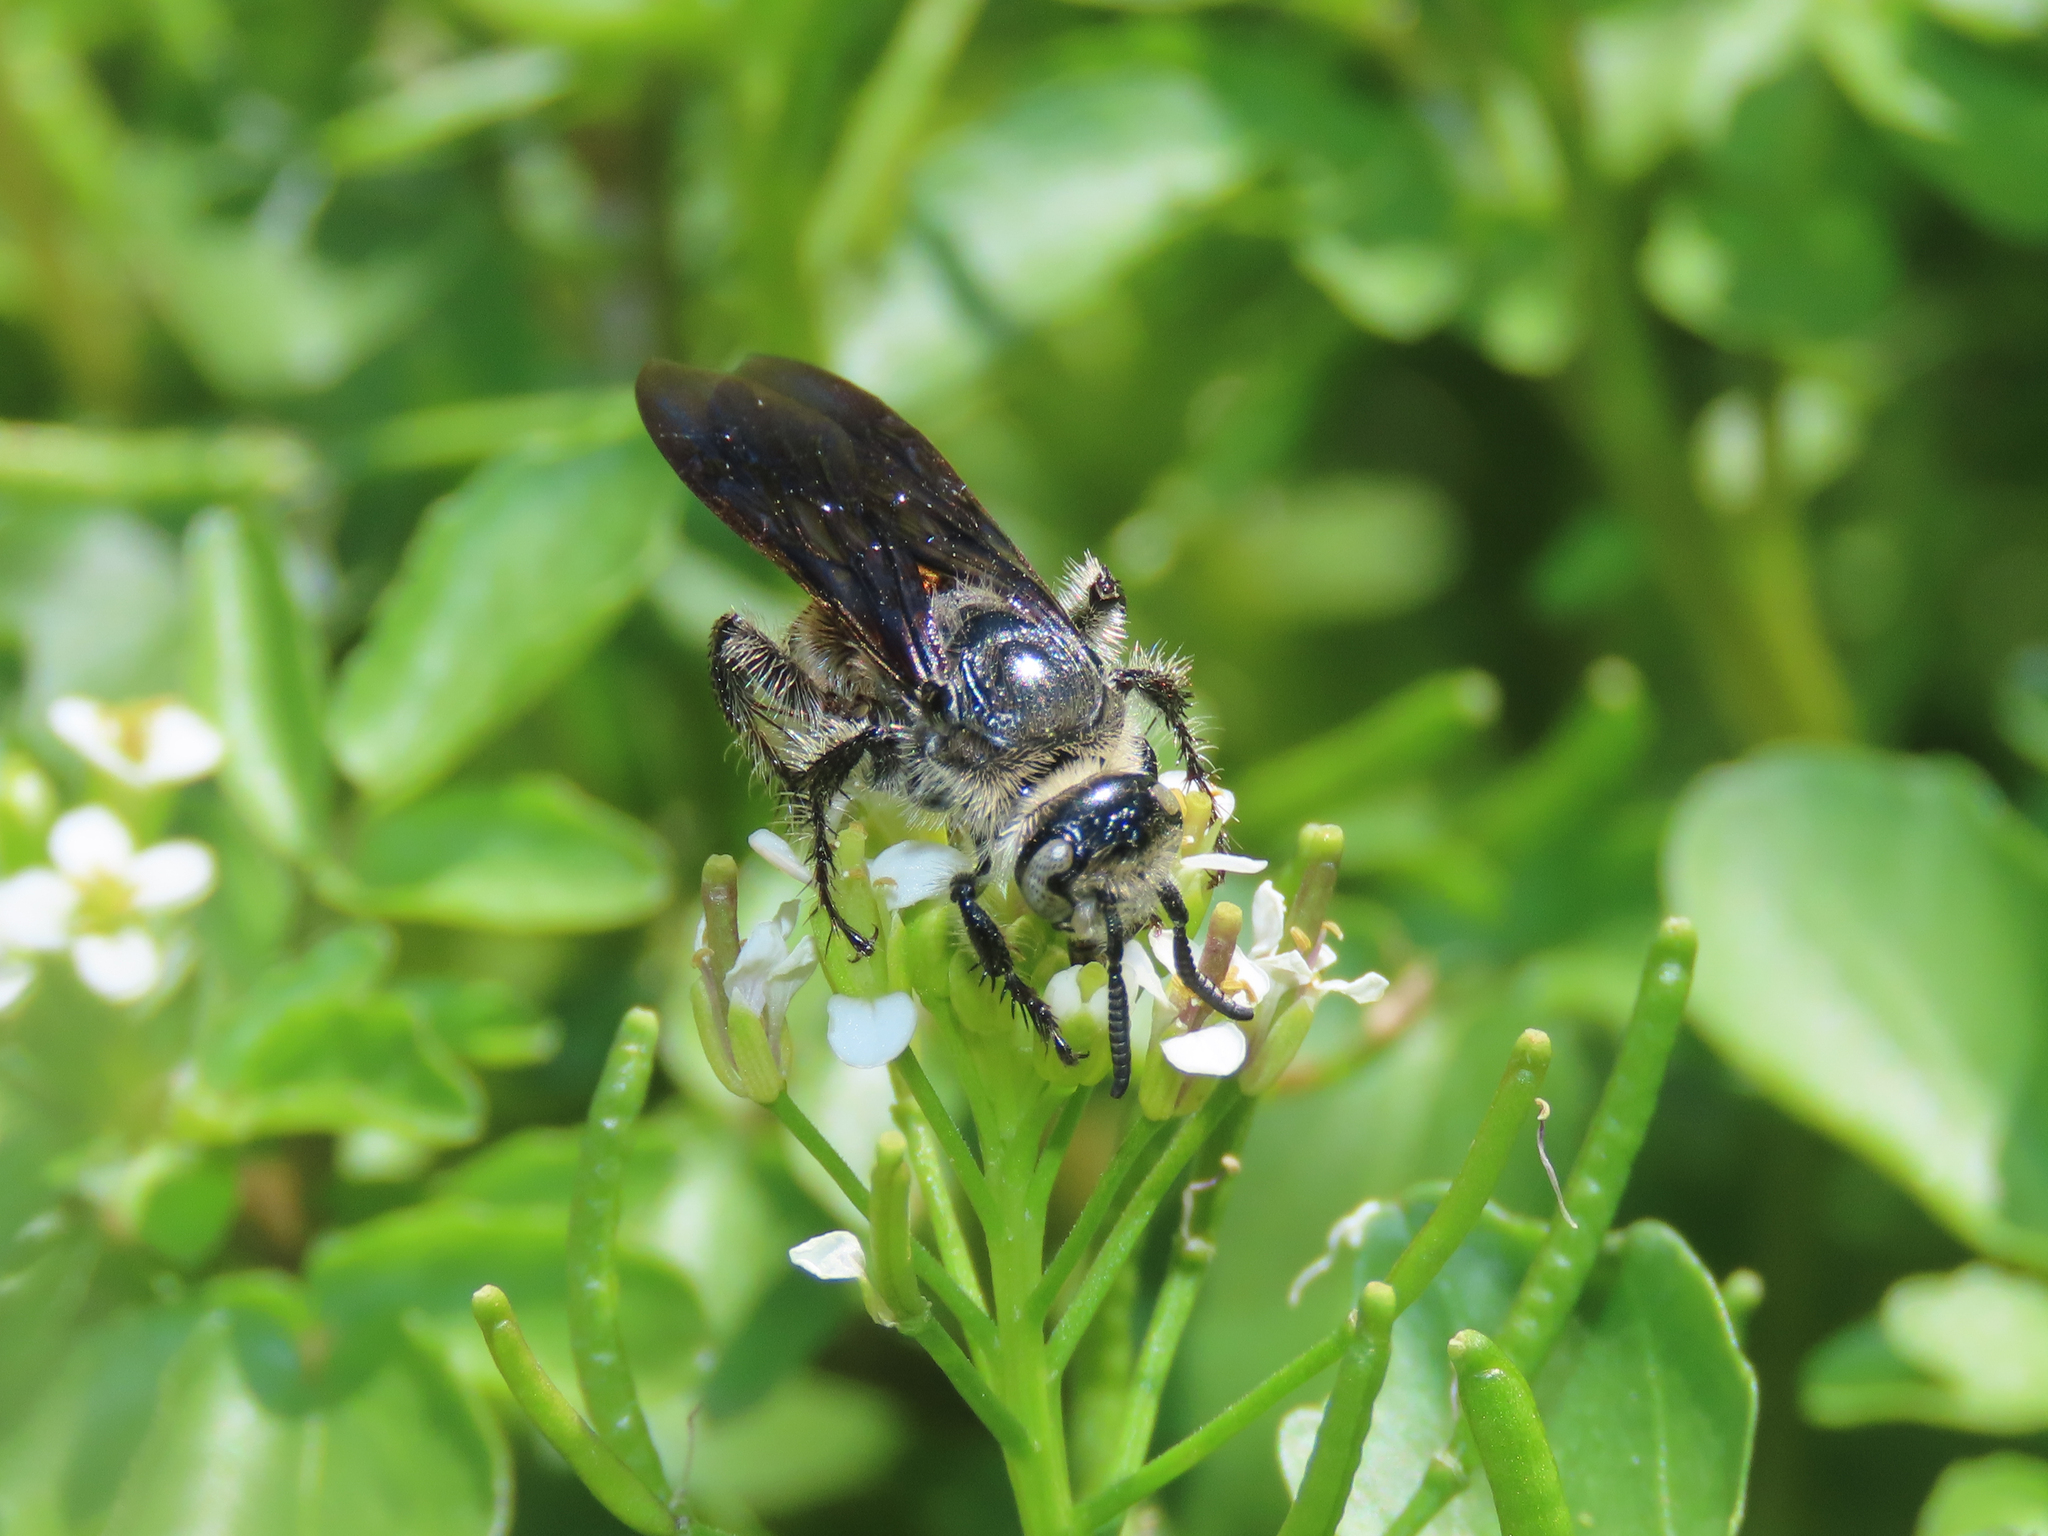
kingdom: Animalia
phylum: Arthropoda
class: Insecta
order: Hymenoptera
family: Scoliidae
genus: Dielis
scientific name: Dielis tolteca
